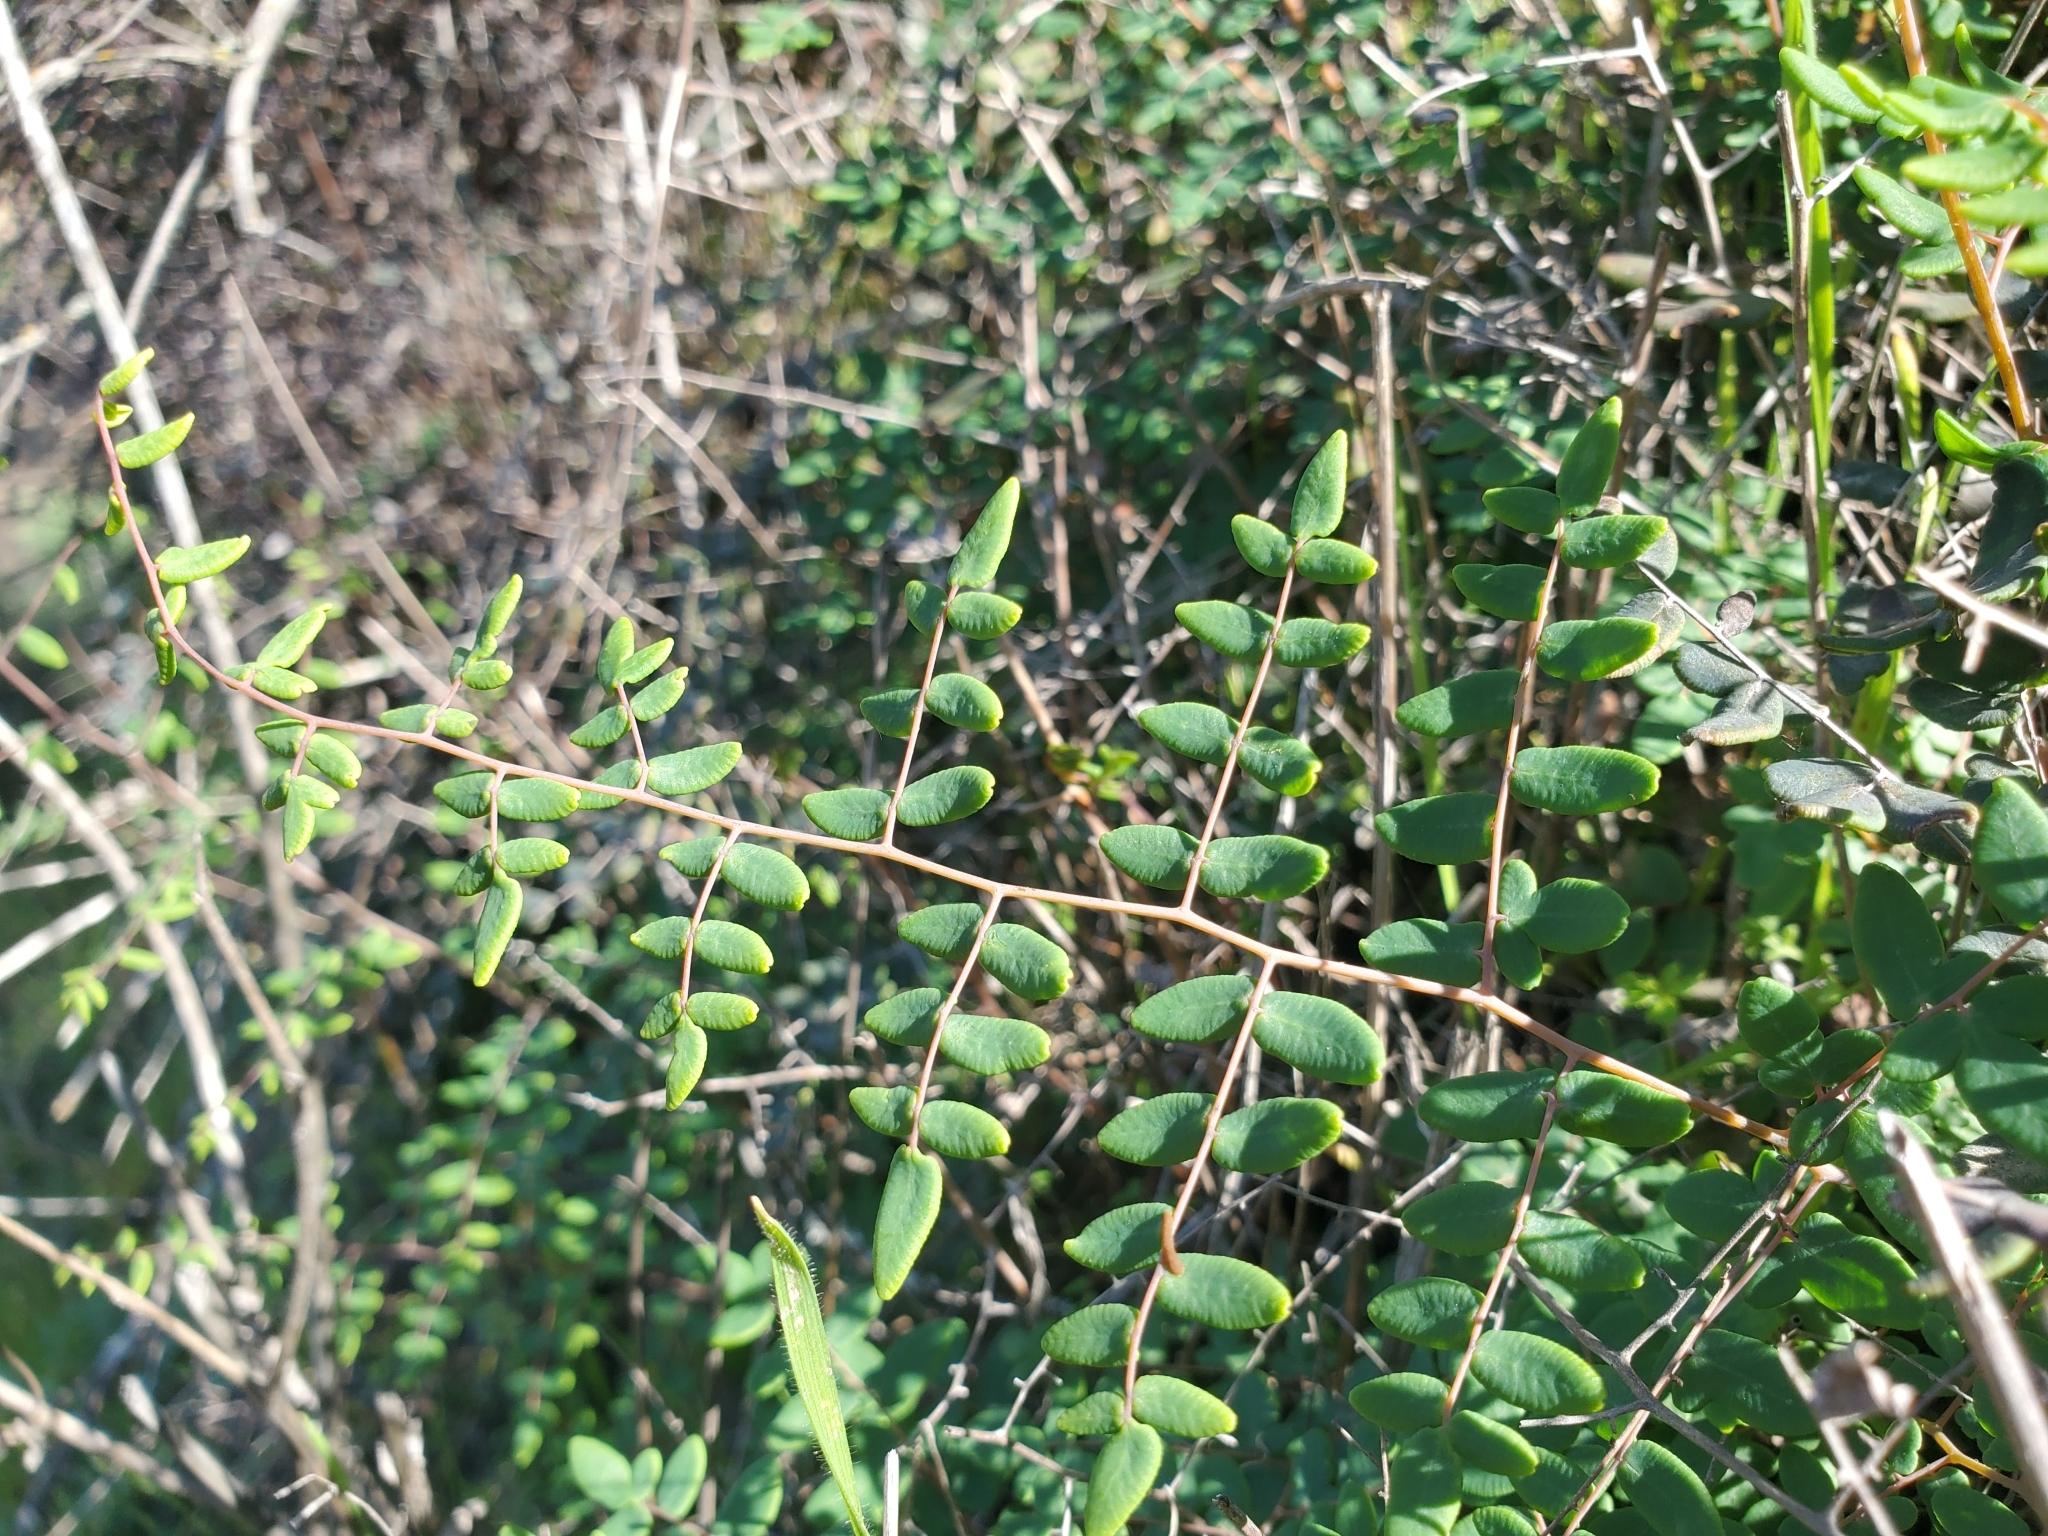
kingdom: Plantae
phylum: Tracheophyta
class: Polypodiopsida
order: Polypodiales
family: Pteridaceae
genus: Pellaea
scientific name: Pellaea andromedifolia
